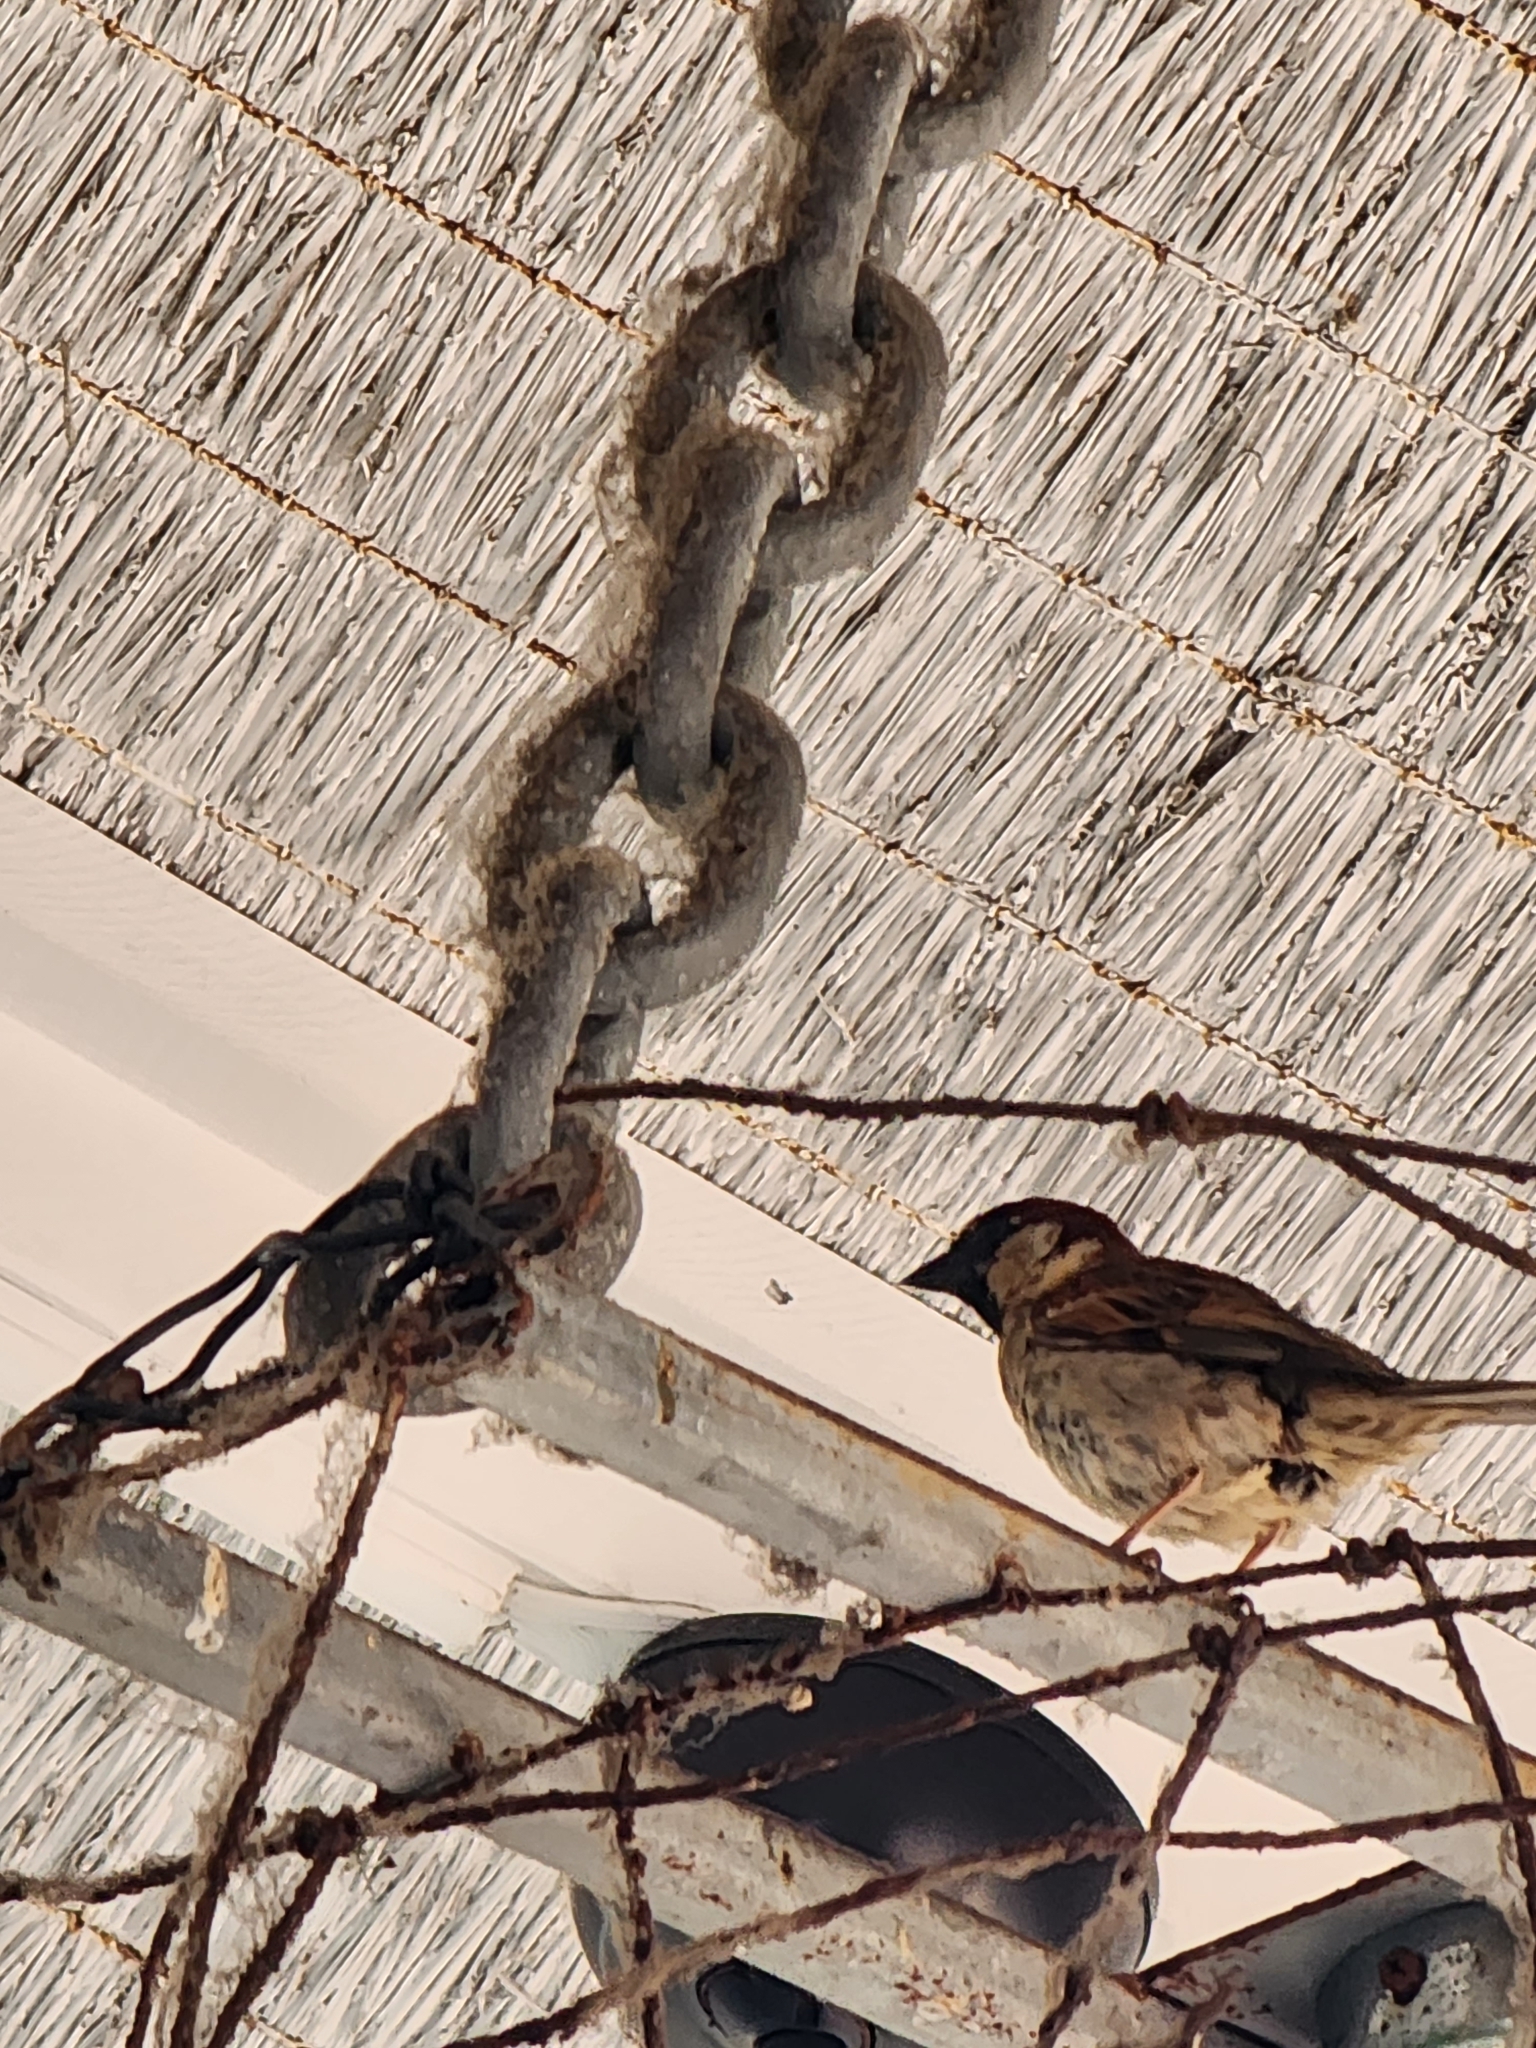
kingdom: Animalia
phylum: Chordata
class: Aves
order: Passeriformes
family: Passeridae
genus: Passer
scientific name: Passer domesticus
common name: House sparrow
